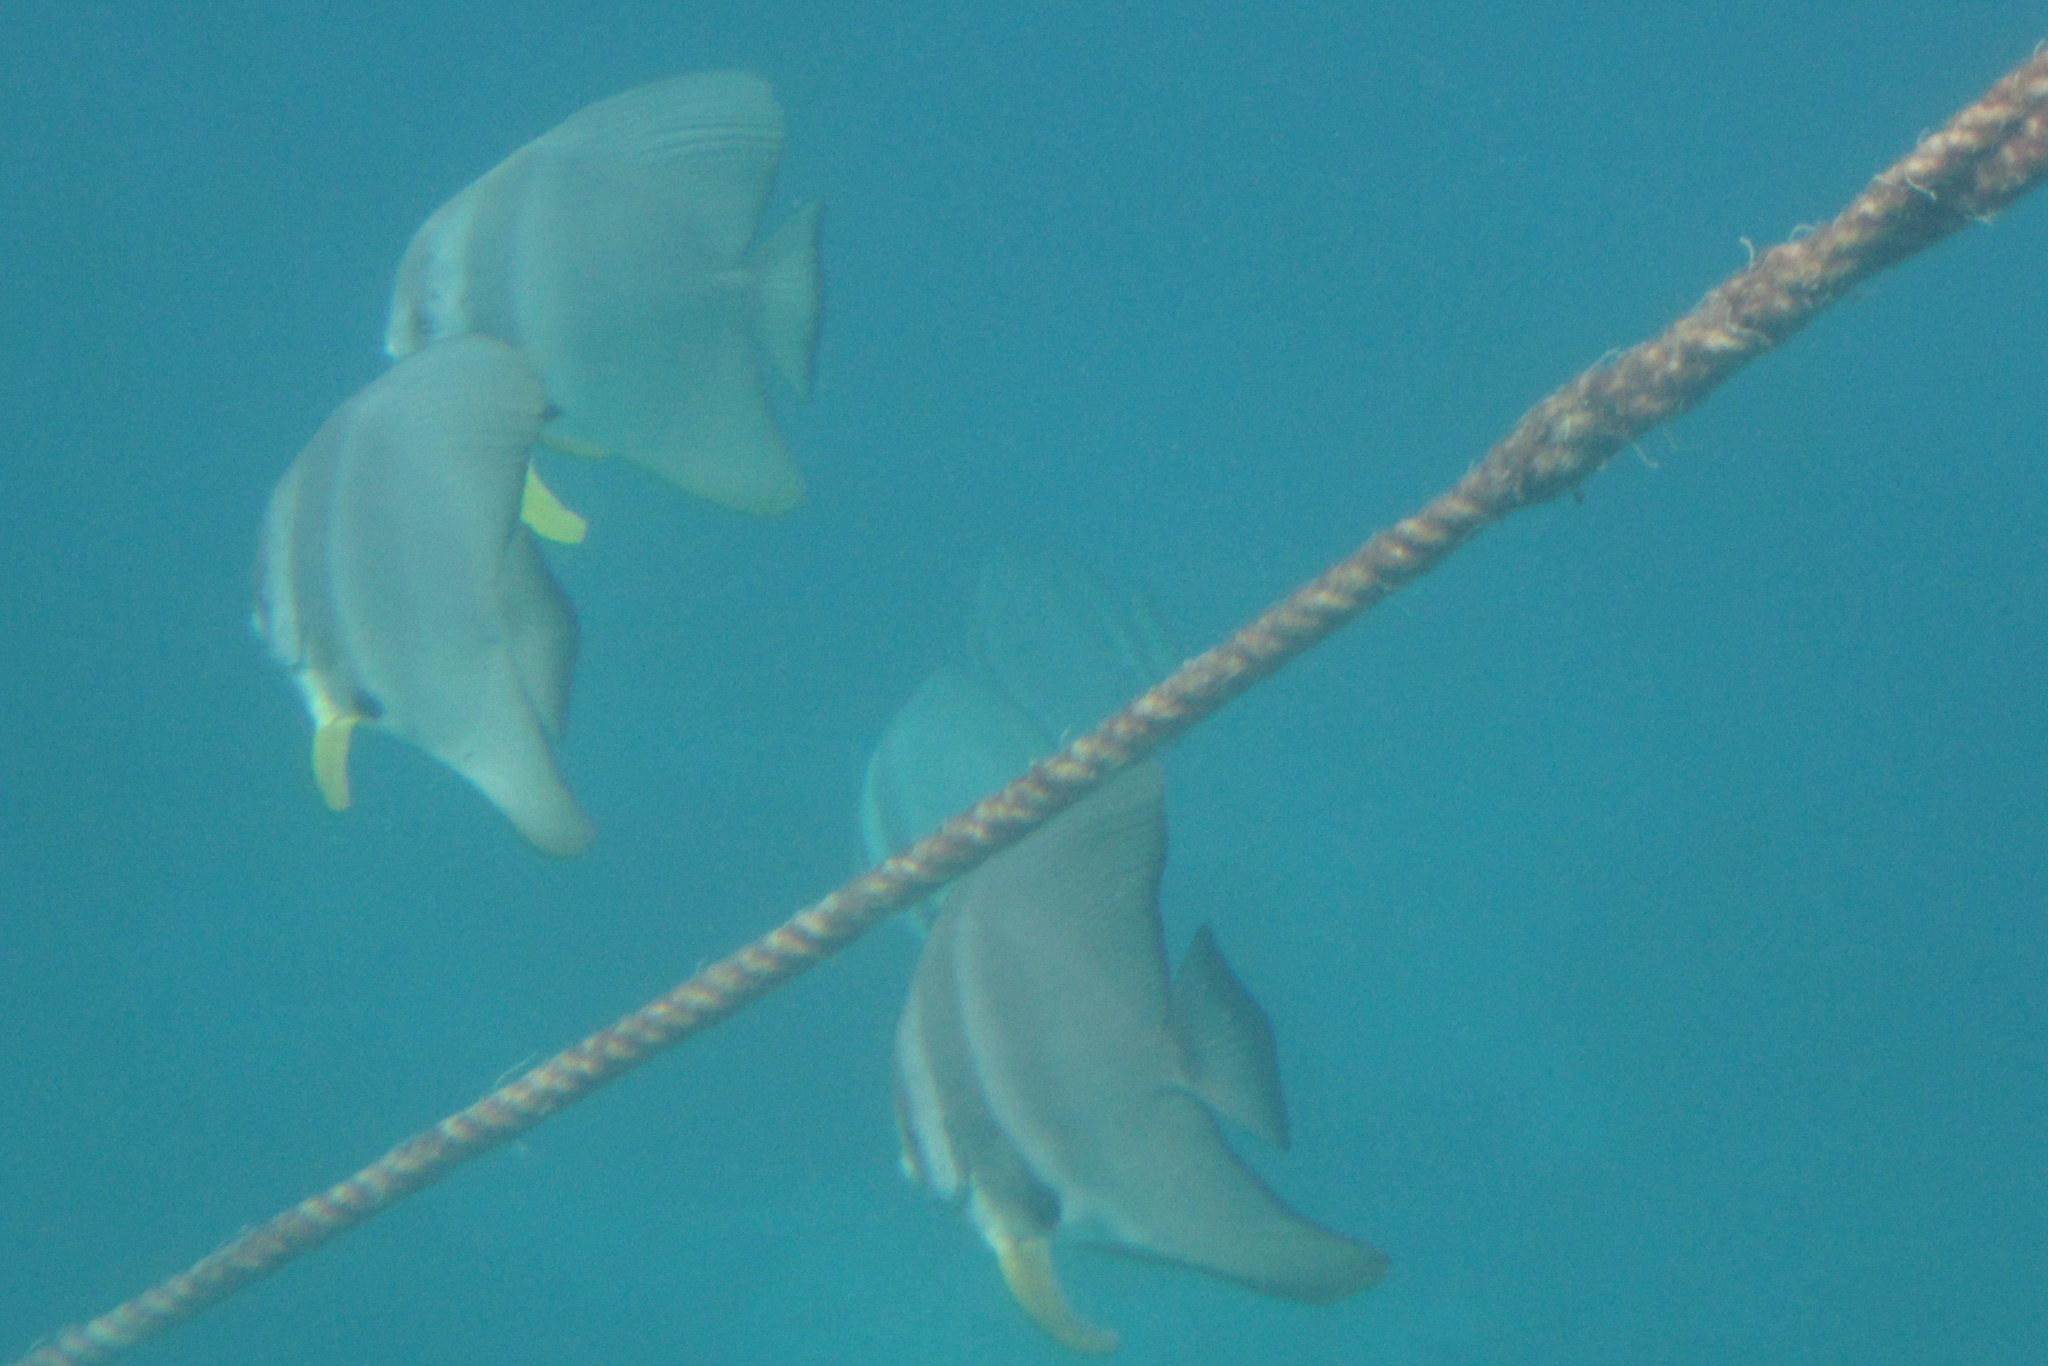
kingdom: Animalia
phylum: Chordata
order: Perciformes
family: Ephippidae
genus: Platax
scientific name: Platax teira
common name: Longfin baitfish
